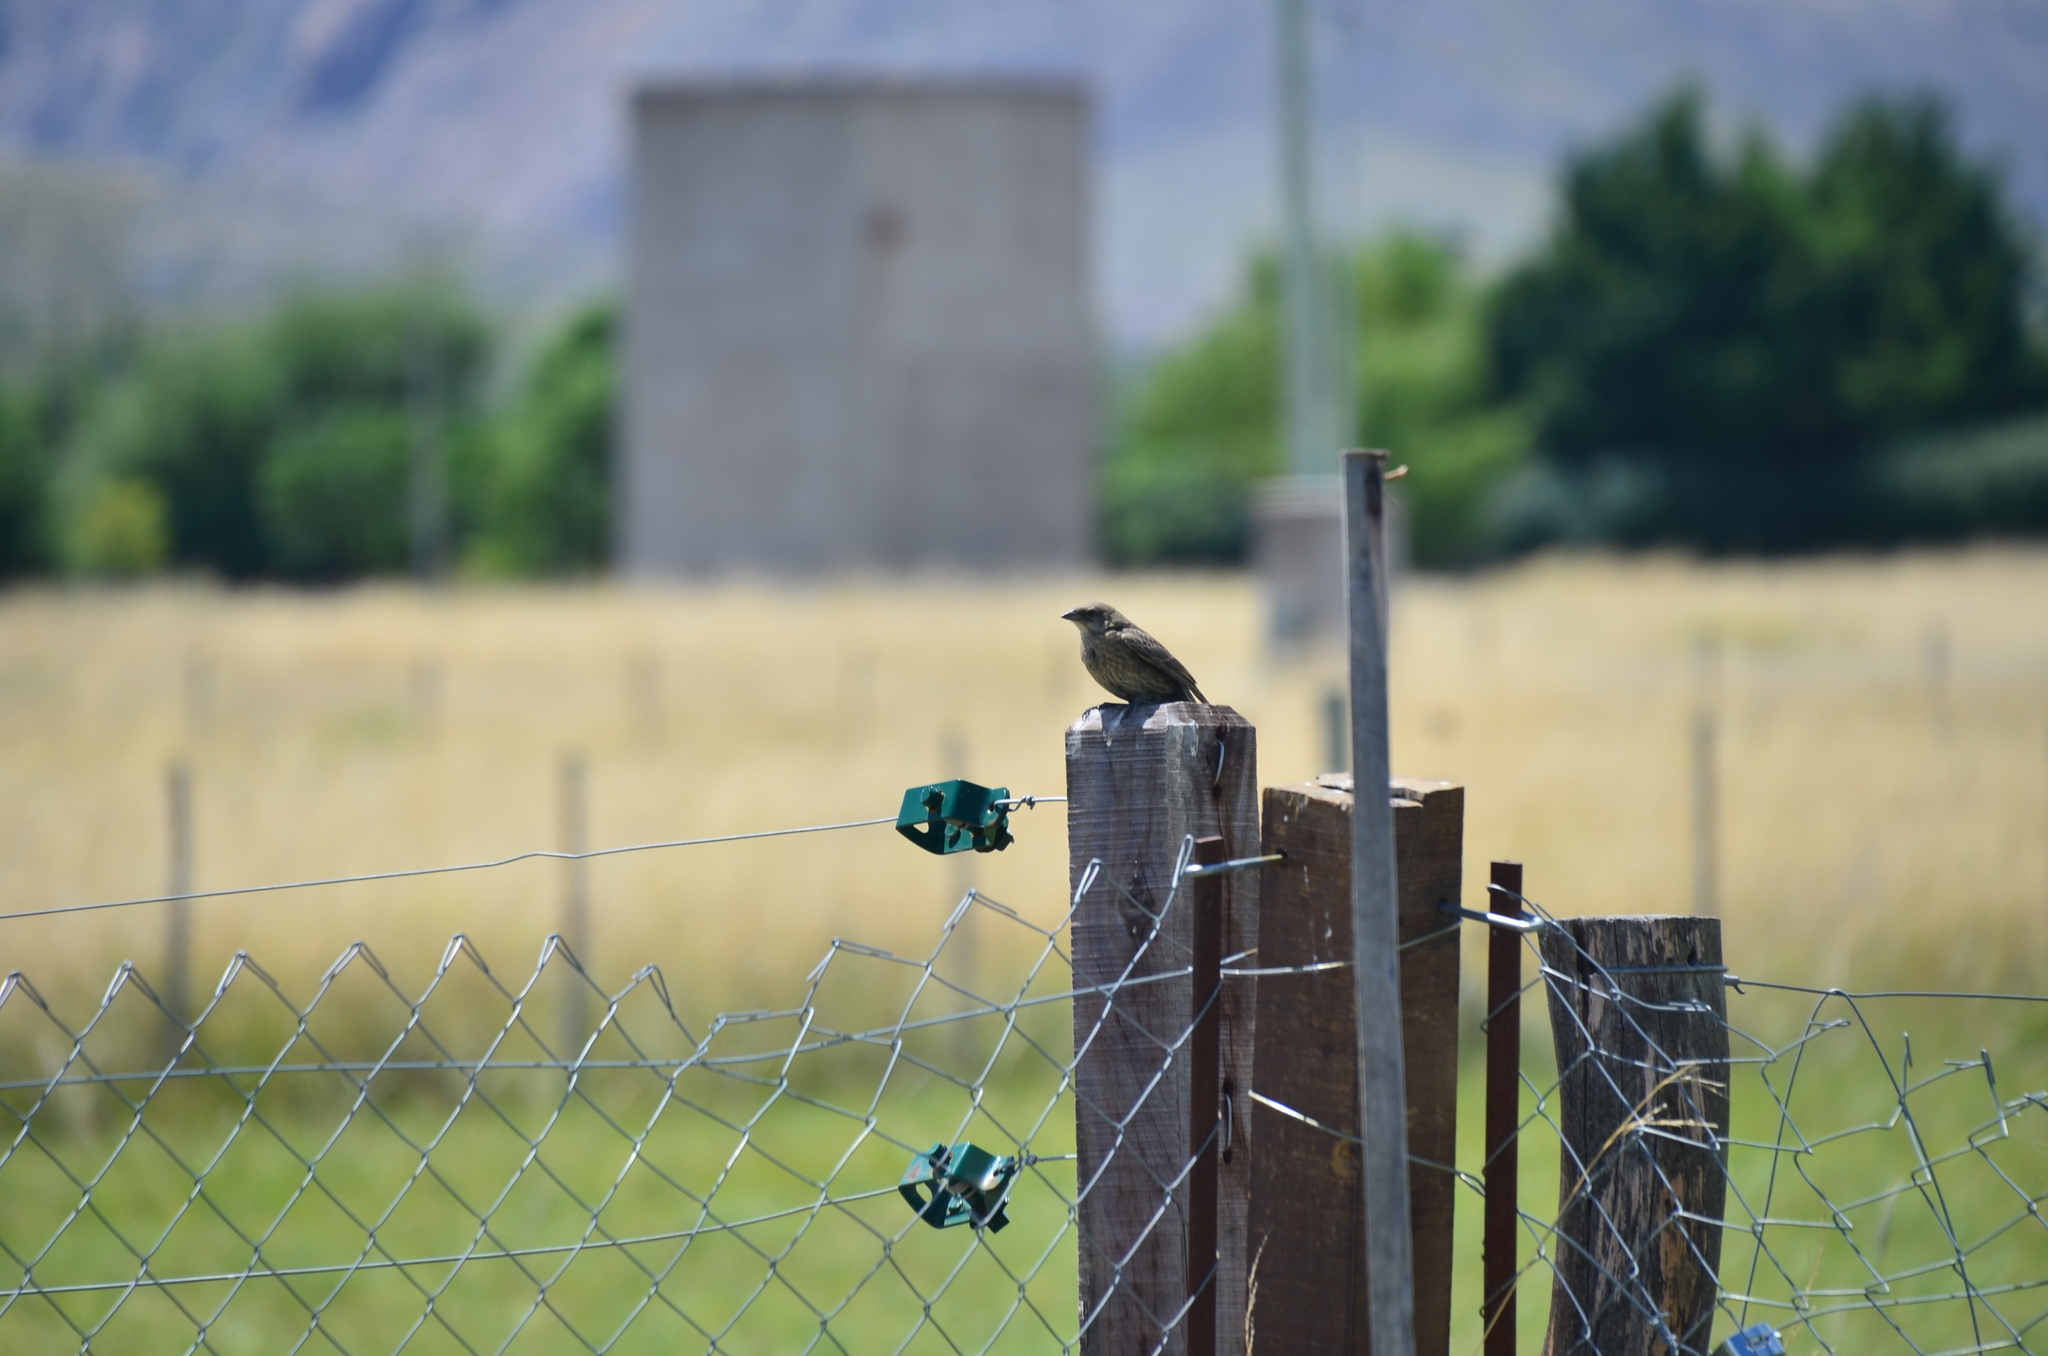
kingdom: Animalia
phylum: Chordata
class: Aves
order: Passeriformes
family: Icteridae
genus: Molothrus
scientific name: Molothrus bonariensis
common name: Shiny cowbird
